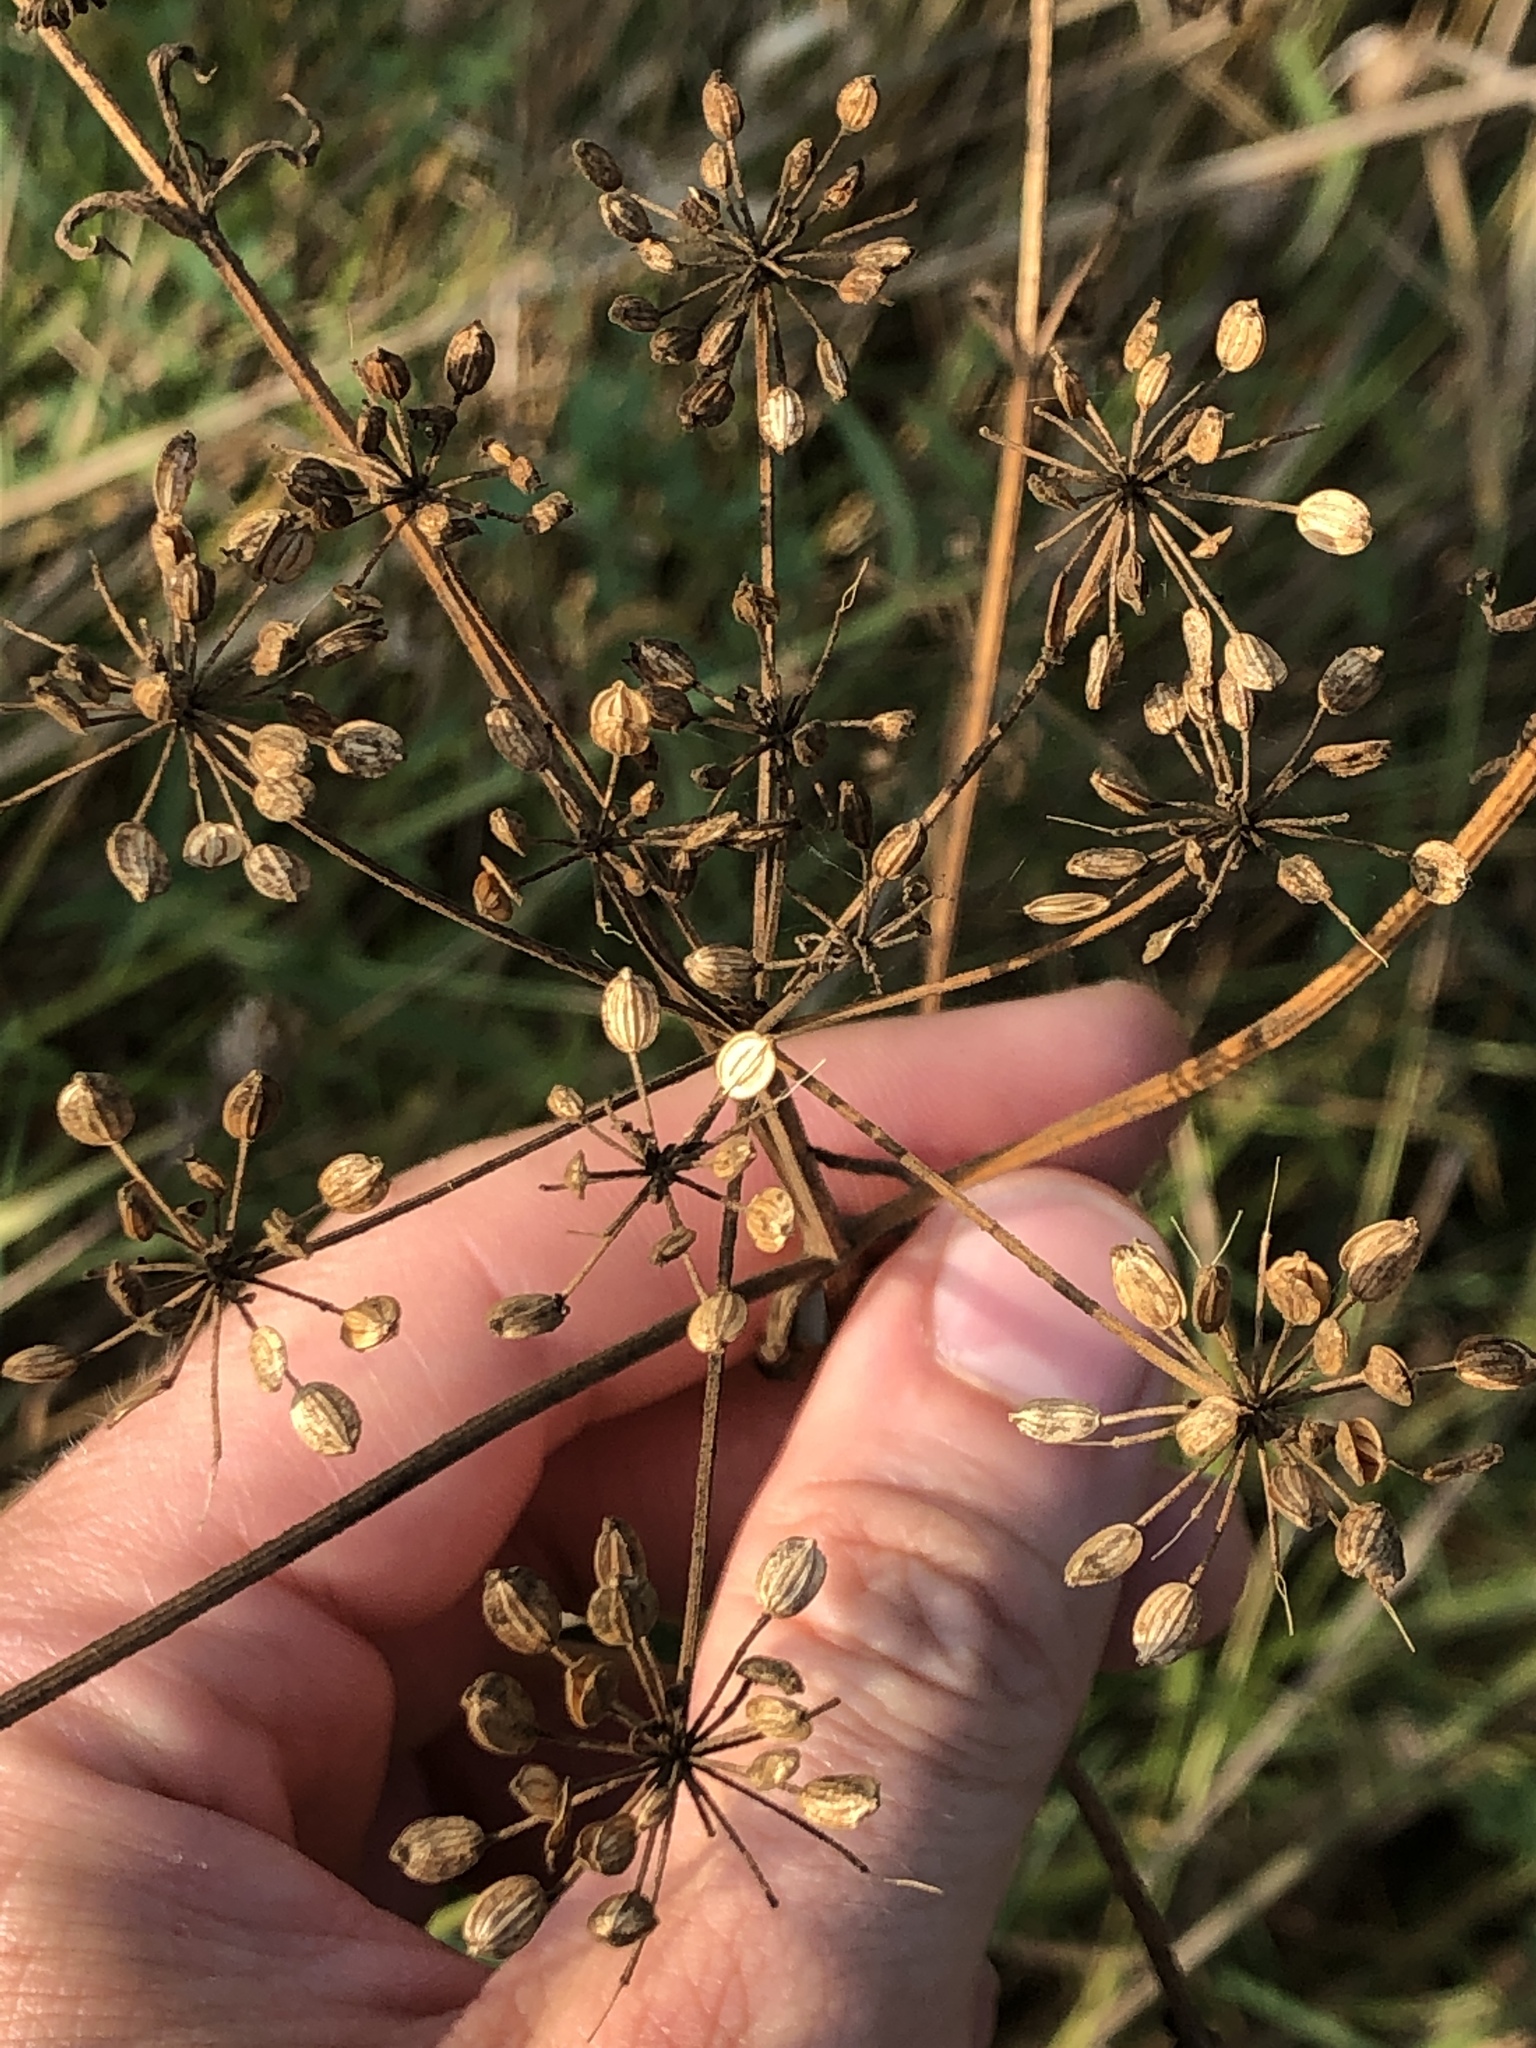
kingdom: Plantae
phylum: Tracheophyta
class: Magnoliopsida
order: Apiales
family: Apiaceae
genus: Pastinaca
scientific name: Pastinaca sativa
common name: Wild parsnip
